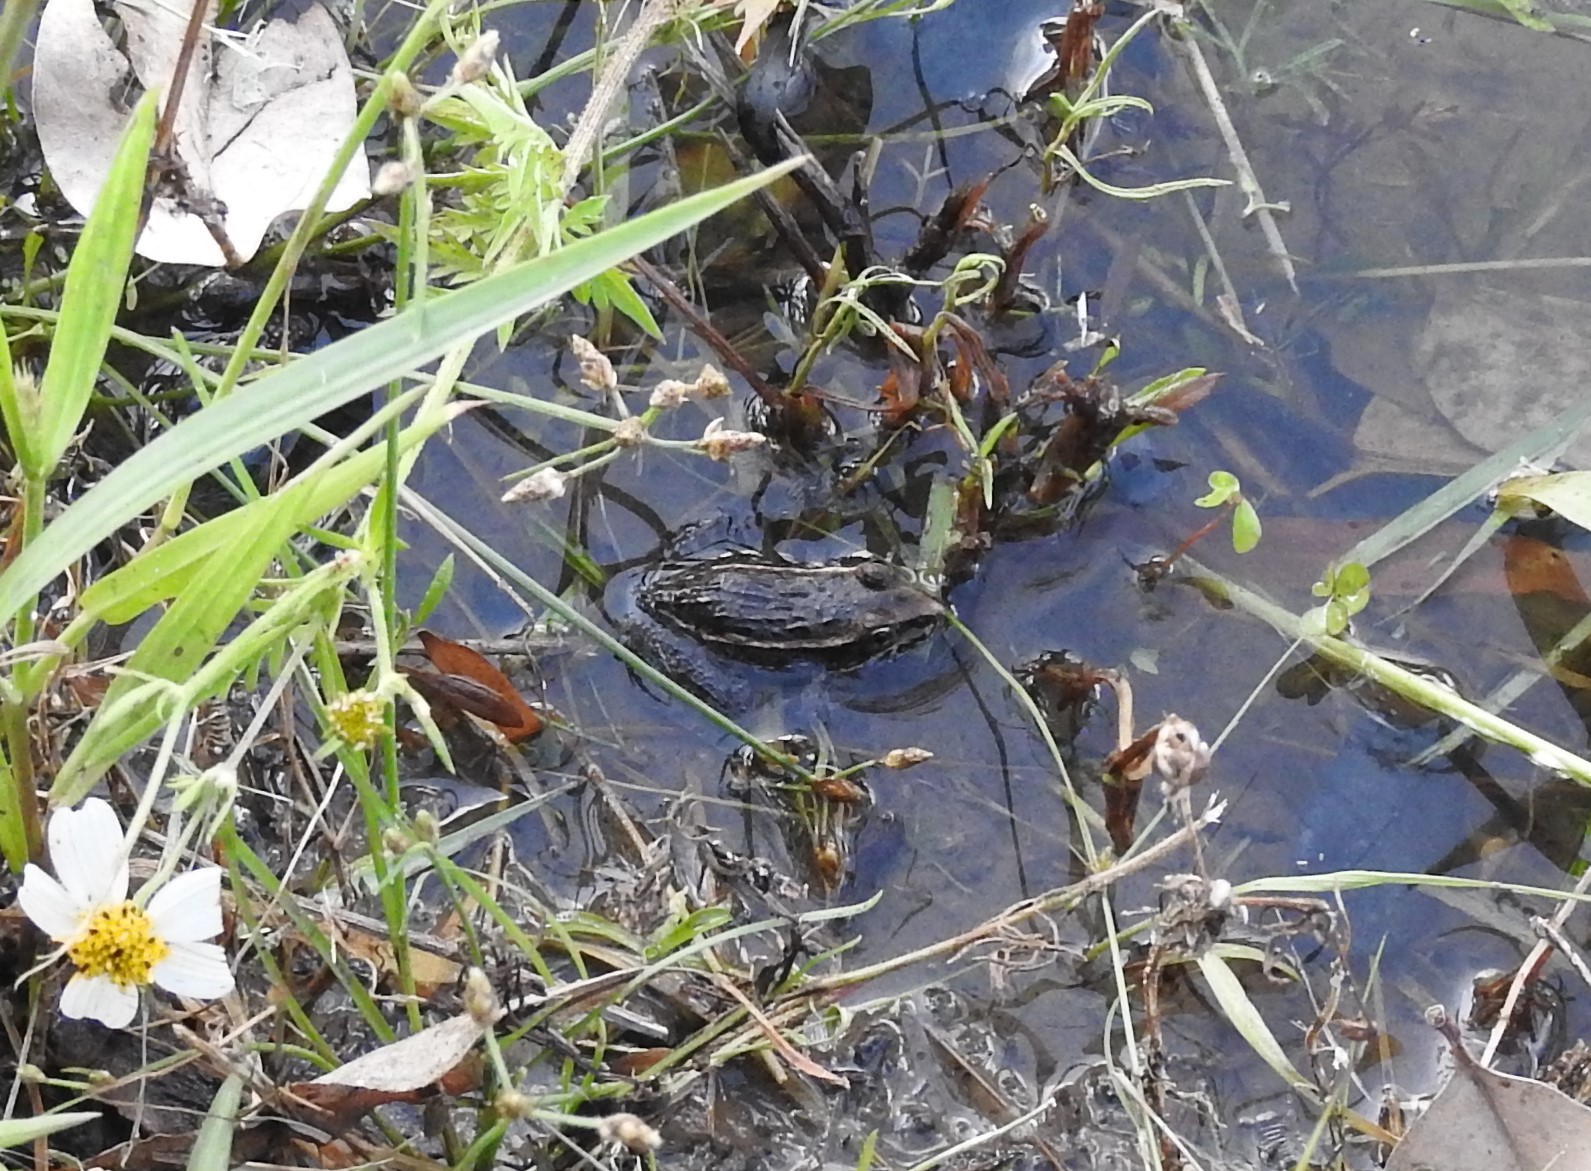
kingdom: Animalia
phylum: Chordata
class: Amphibia
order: Anura
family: Ranidae
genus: Lithobates
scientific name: Lithobates neovolcanicus
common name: Transverse volcanic leopard frog
